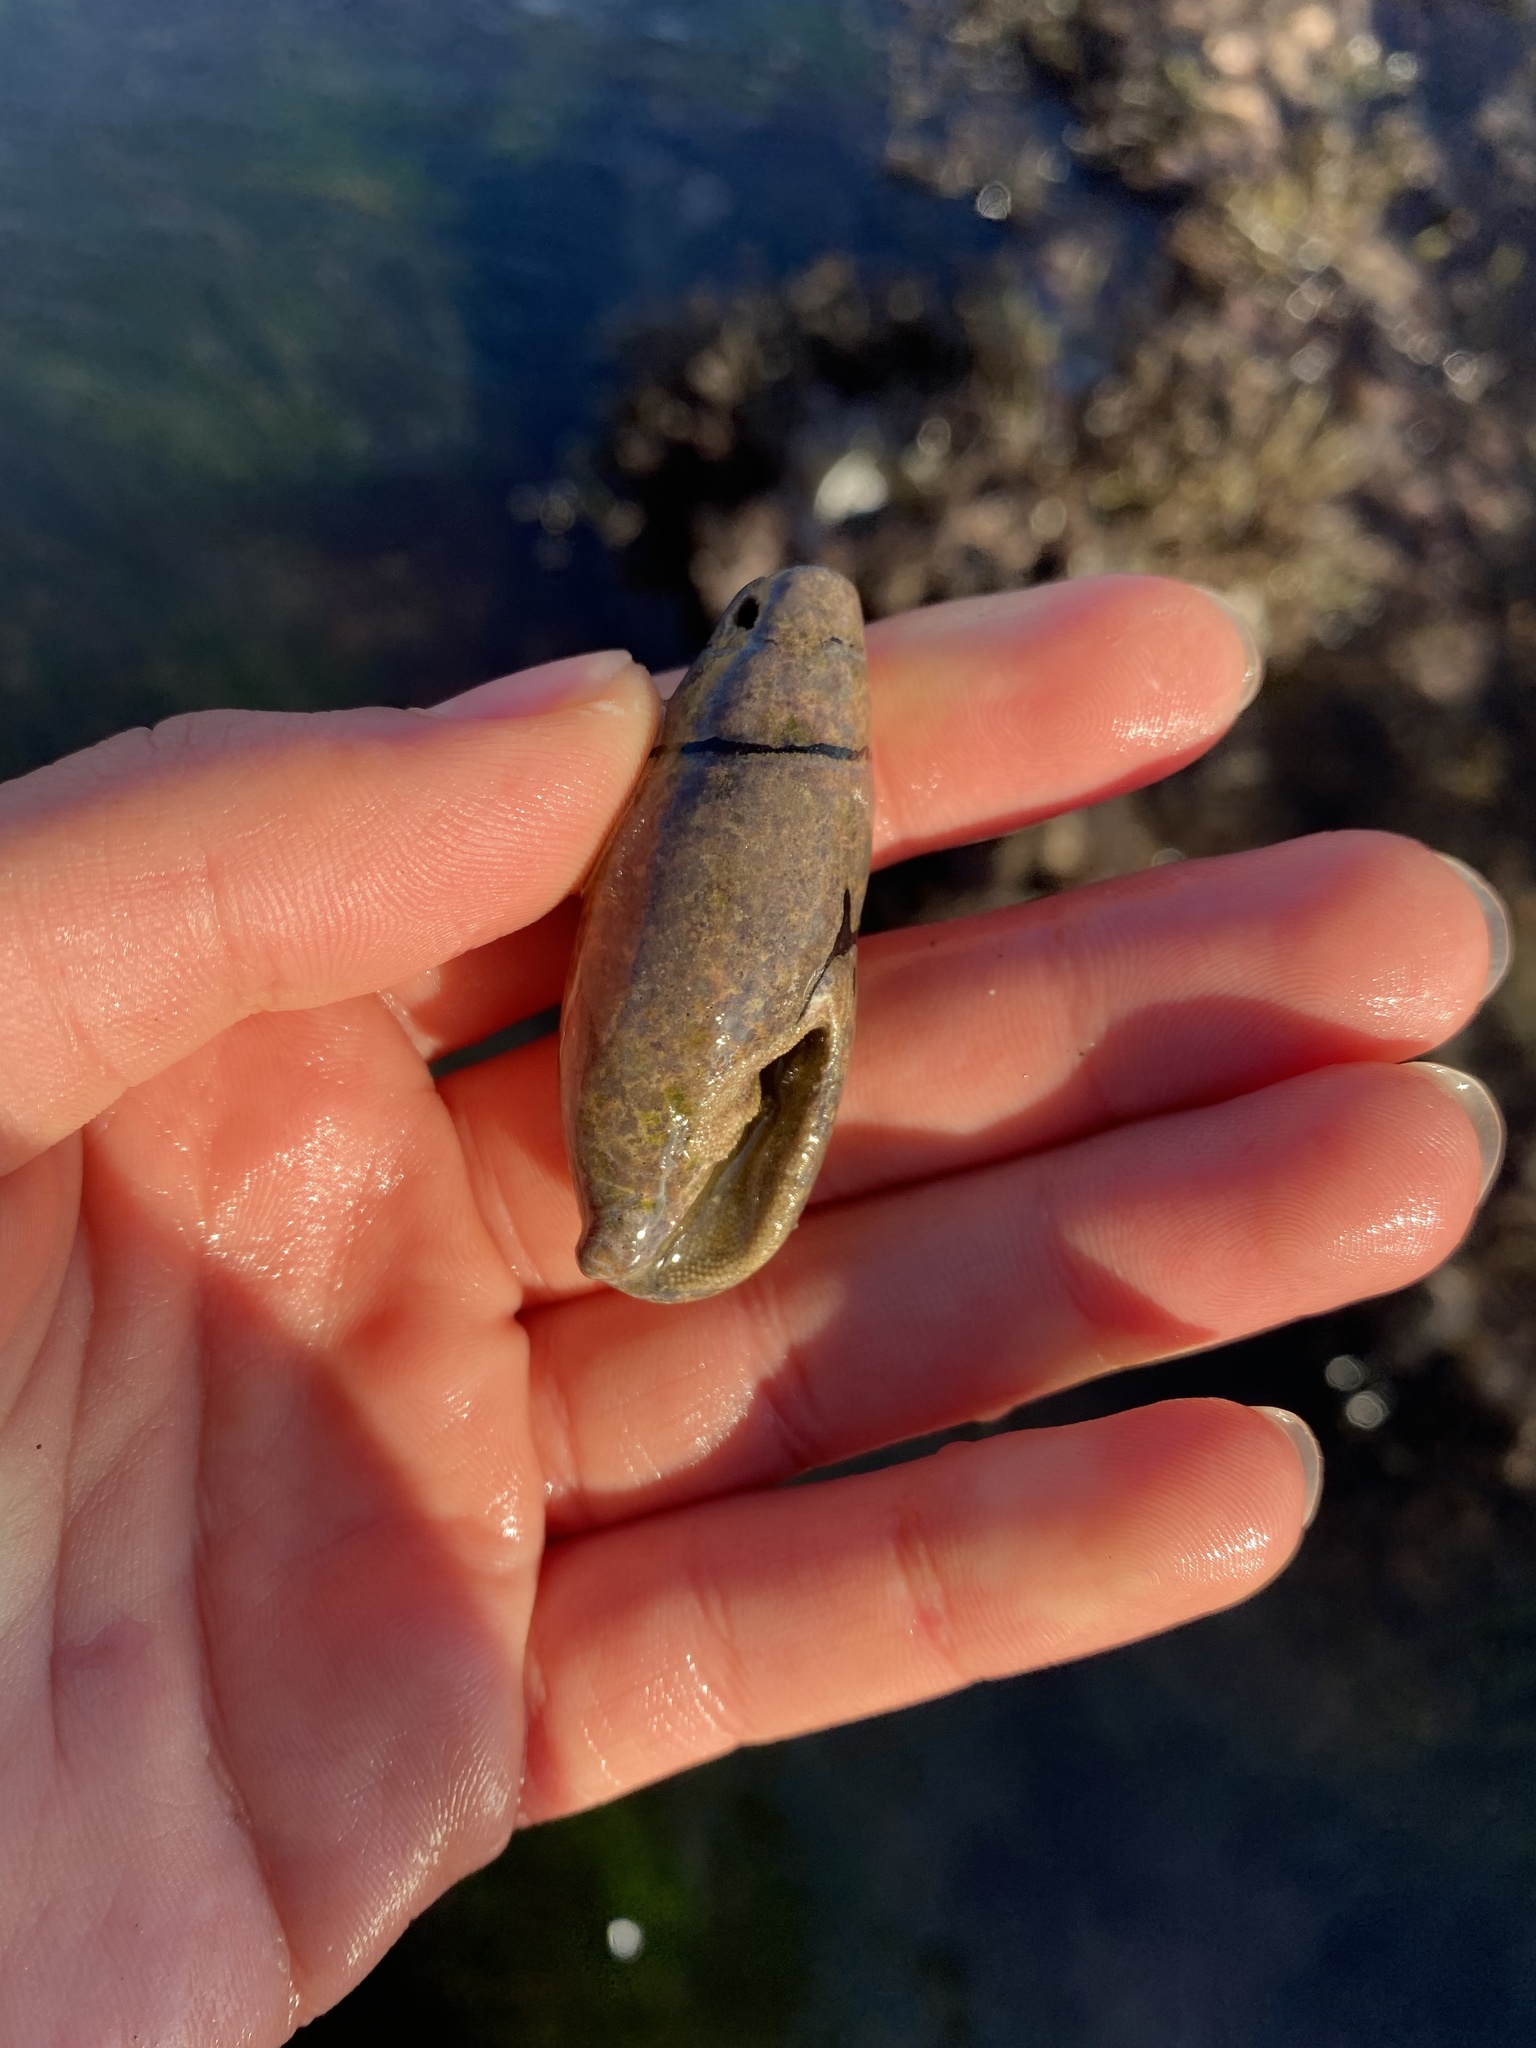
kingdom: Animalia
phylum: Mollusca
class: Gastropoda
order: Neogastropoda
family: Mitridae
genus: Atrimitra
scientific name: Atrimitra idae
